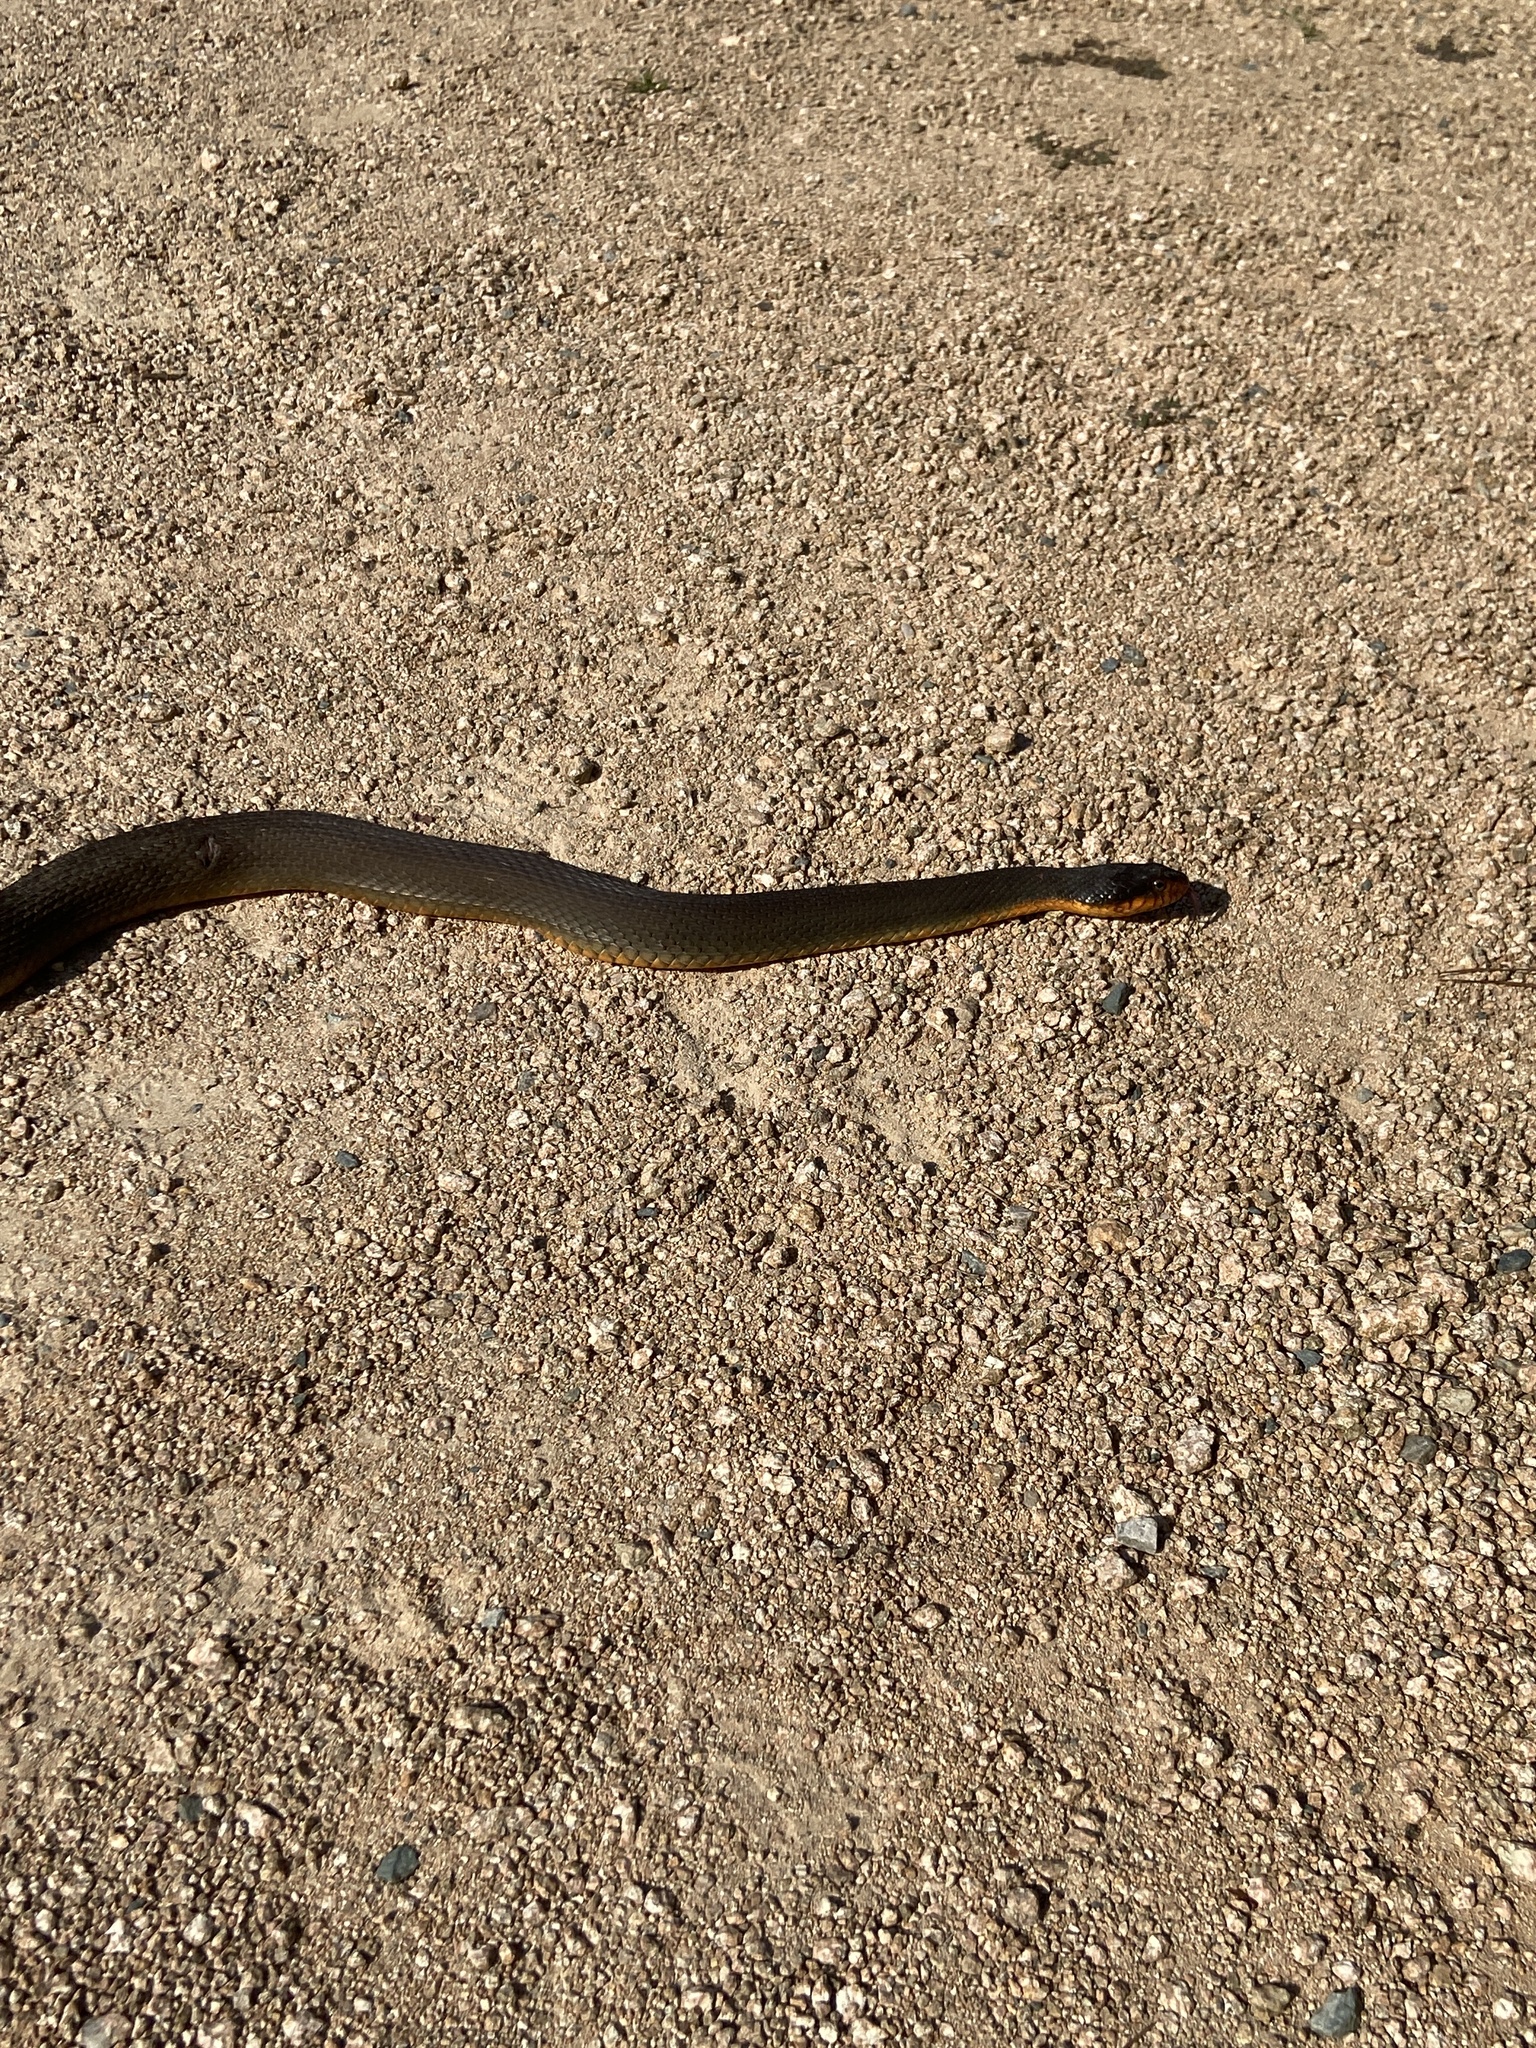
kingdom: Animalia
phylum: Chordata
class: Squamata
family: Colubridae
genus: Nerodia
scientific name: Nerodia erythrogaster
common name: Plainbelly water snake
